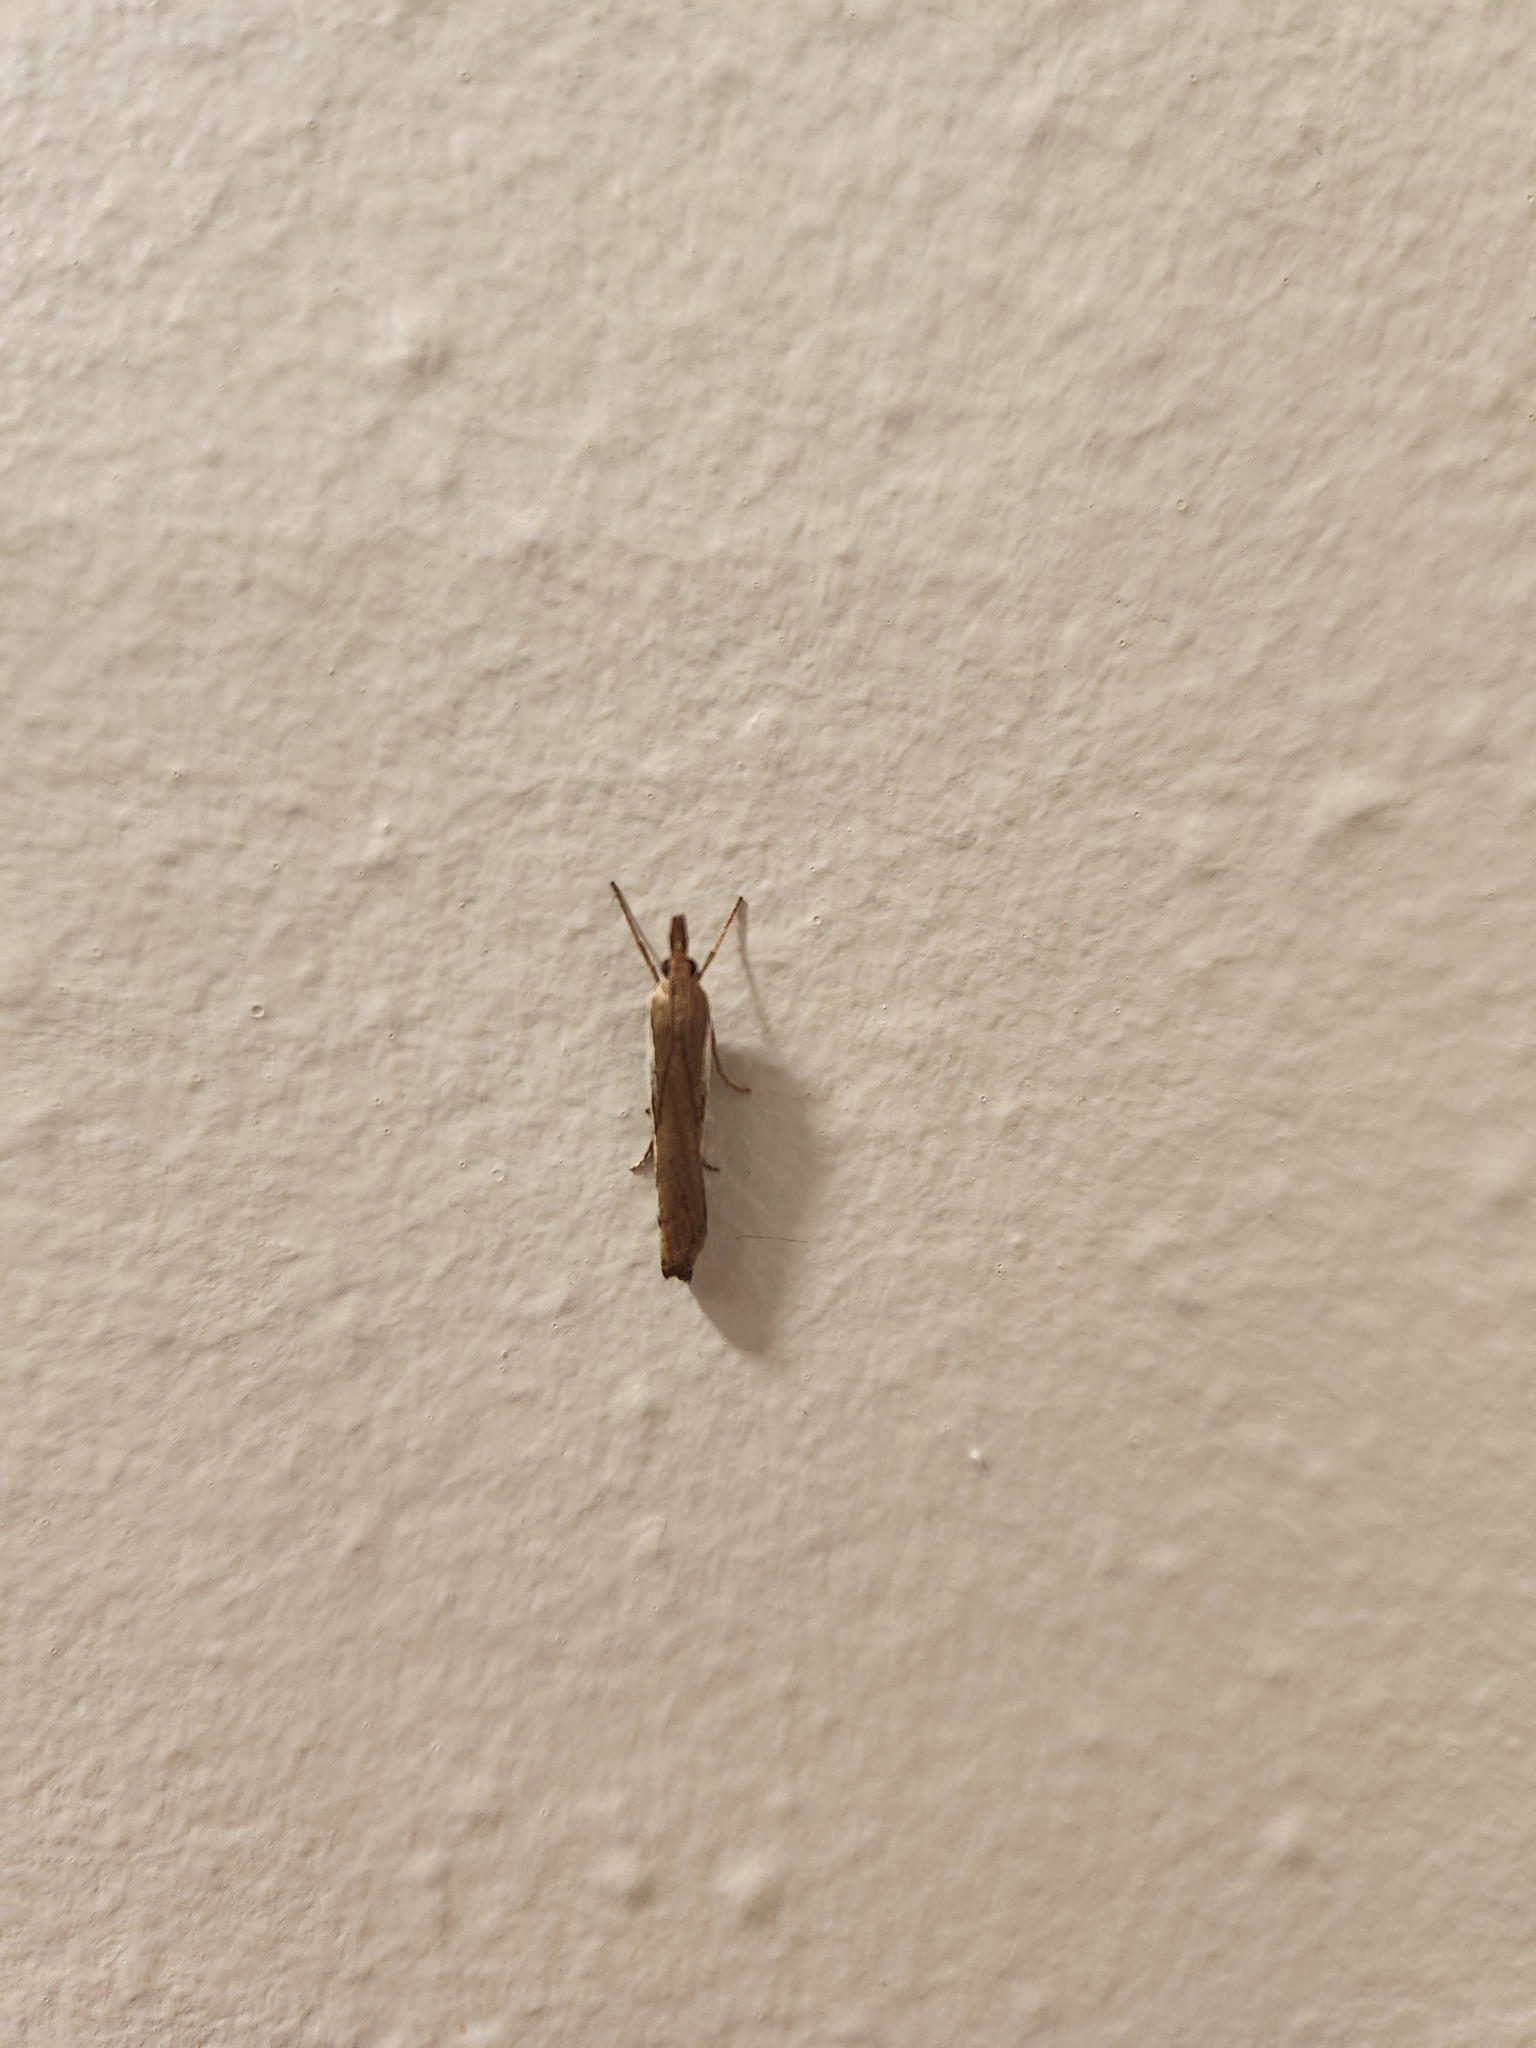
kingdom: Animalia
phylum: Arthropoda
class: Insecta
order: Lepidoptera
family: Crambidae
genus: Orocrambus
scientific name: Orocrambus flexuosellus
